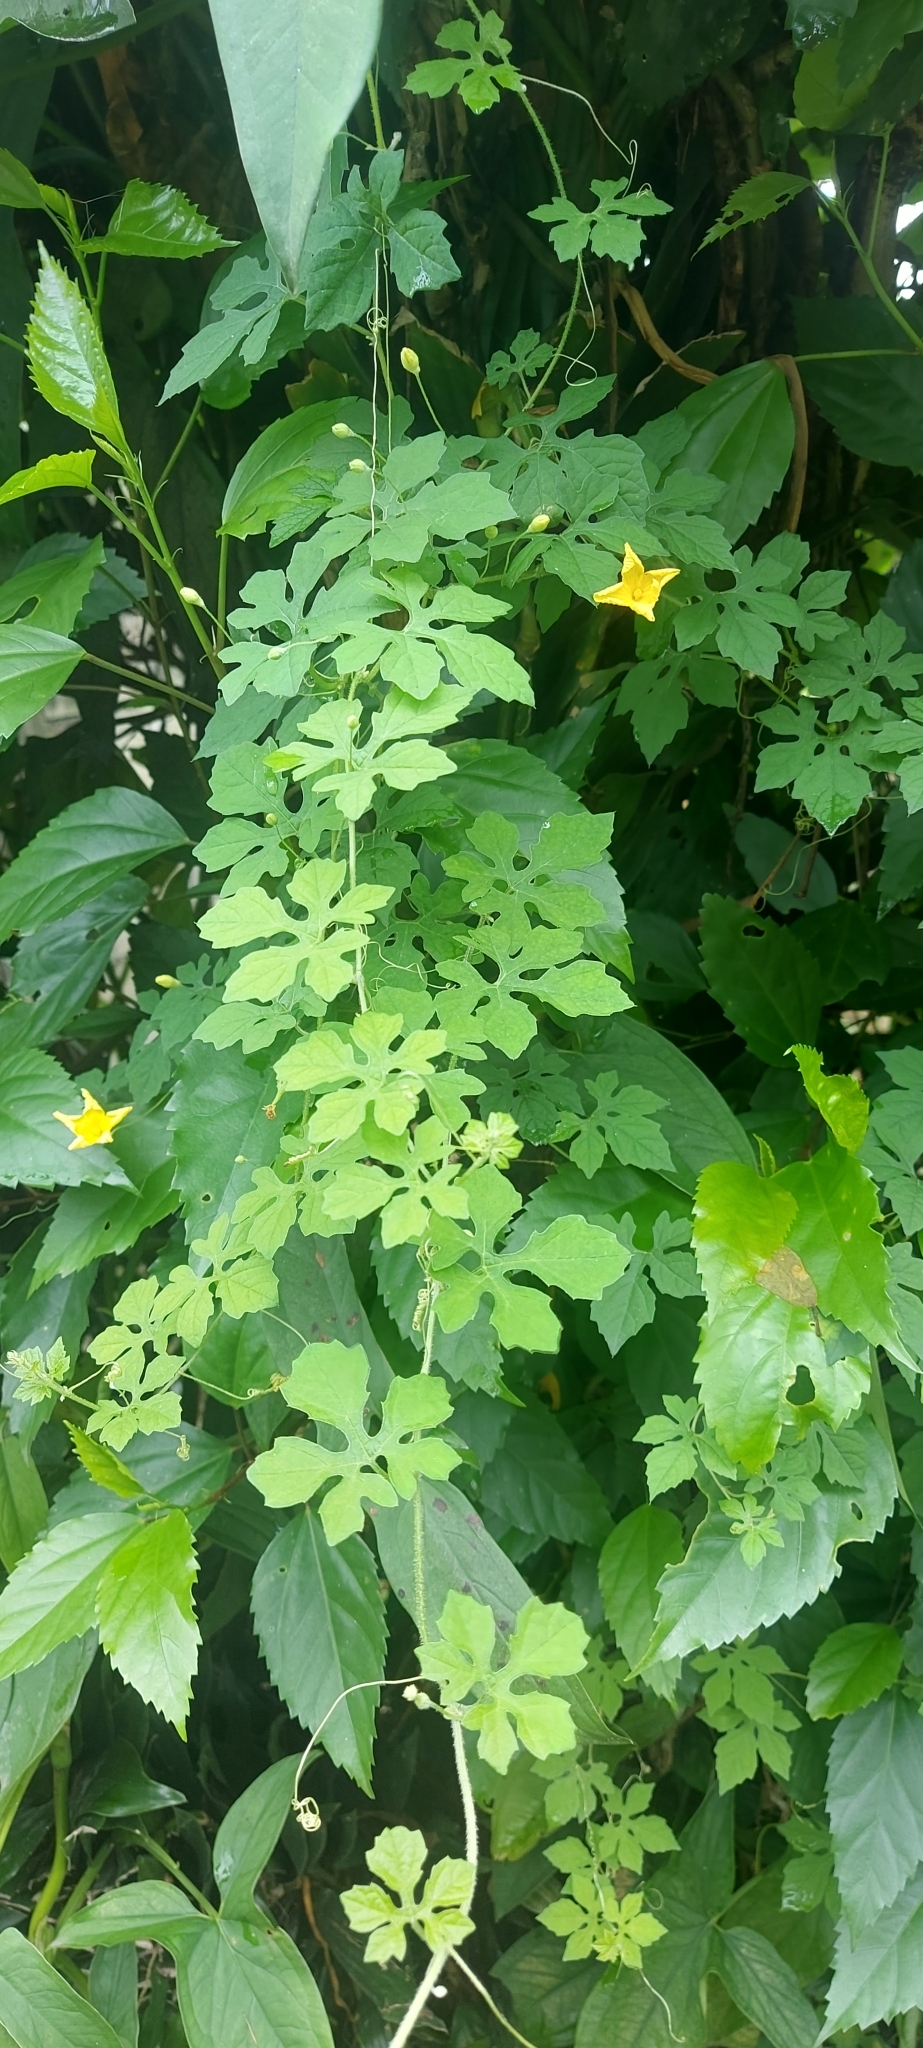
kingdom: Plantae
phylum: Tracheophyta
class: Magnoliopsida
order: Cucurbitales
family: Cucurbitaceae
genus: Momordica
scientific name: Momordica charantia
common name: Balsampear
